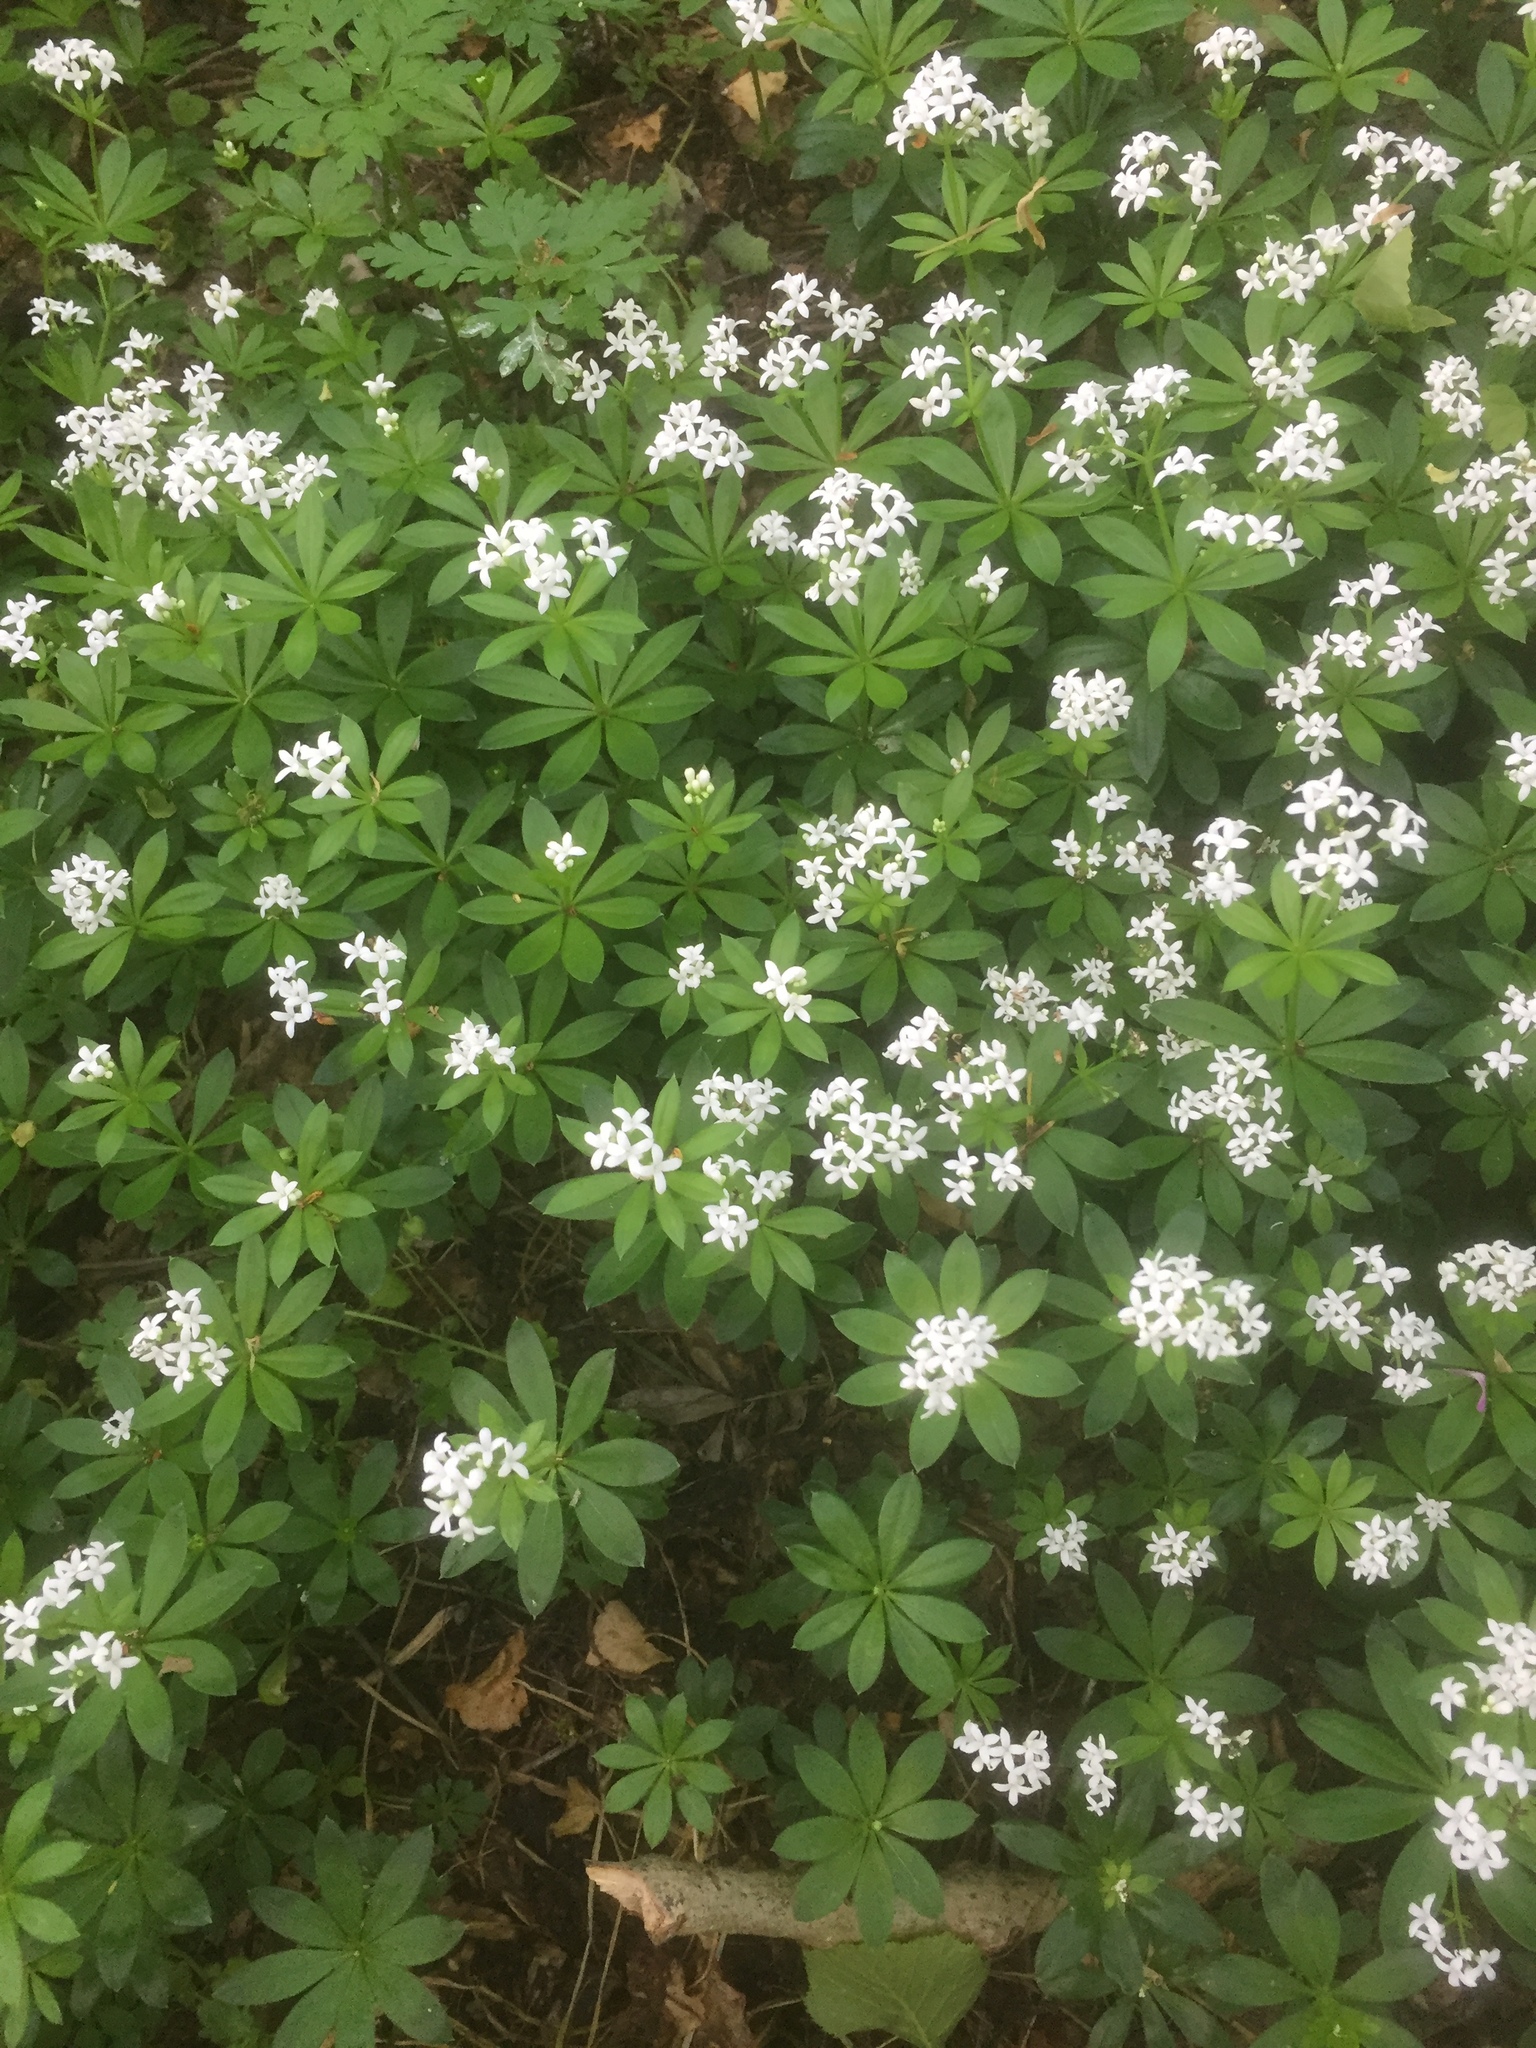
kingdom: Plantae
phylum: Tracheophyta
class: Magnoliopsida
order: Gentianales
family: Rubiaceae
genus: Galium
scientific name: Galium odoratum
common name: Sweet woodruff
